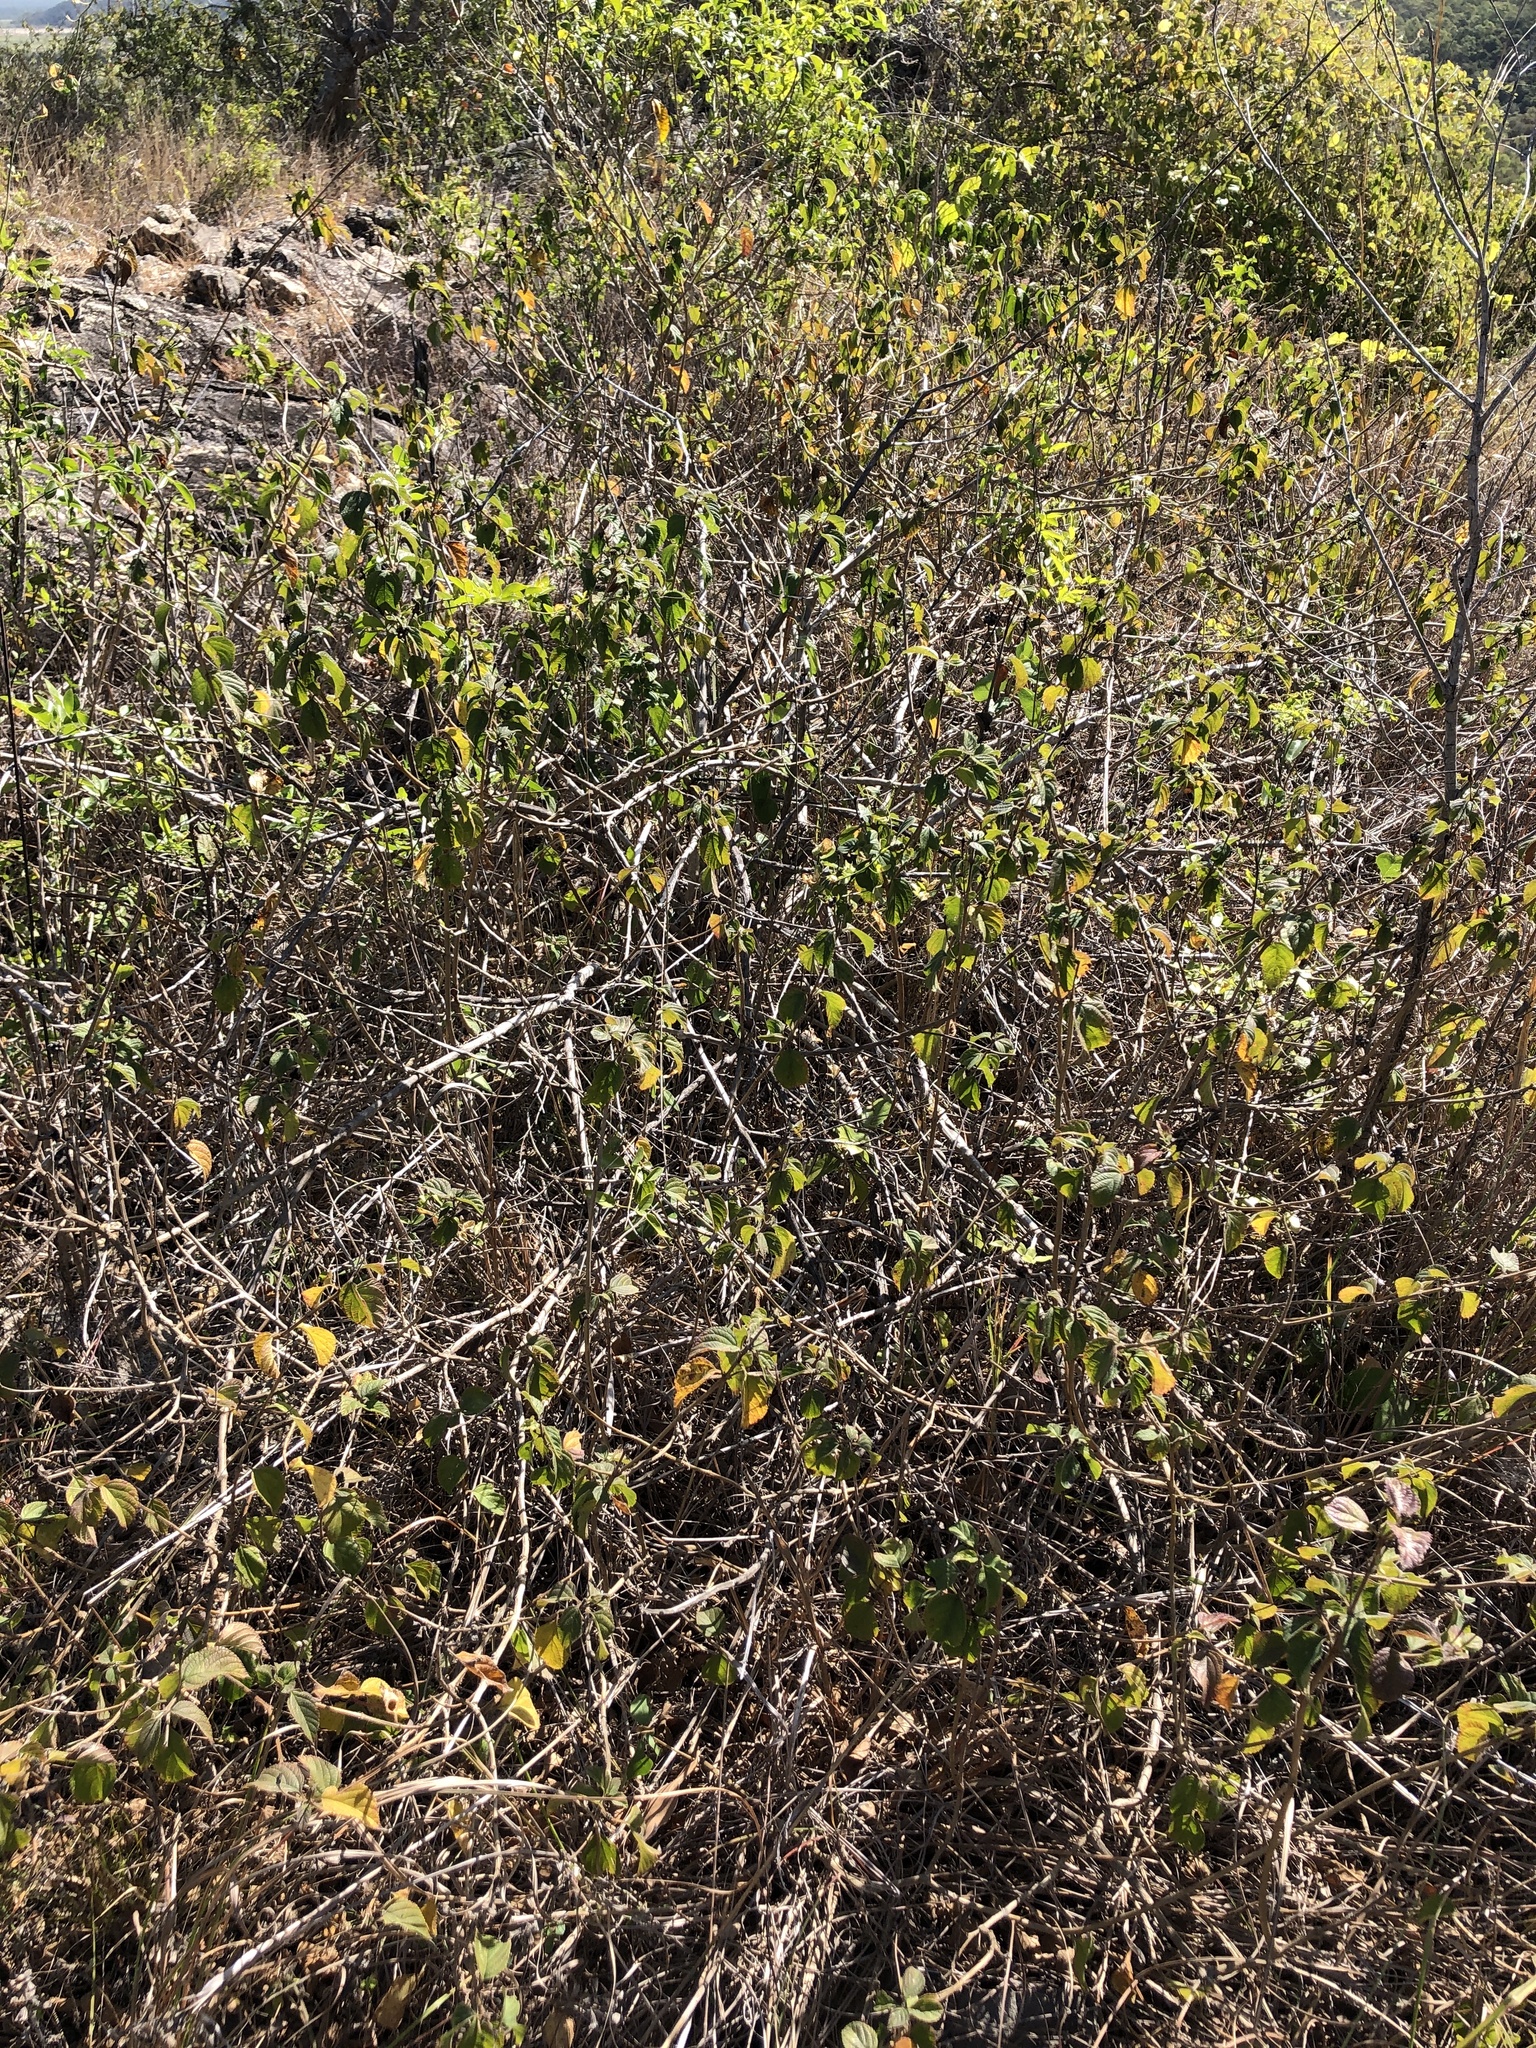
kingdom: Plantae
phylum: Tracheophyta
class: Magnoliopsida
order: Lamiales
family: Verbenaceae
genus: Lantana
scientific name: Lantana camara
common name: Lantana
